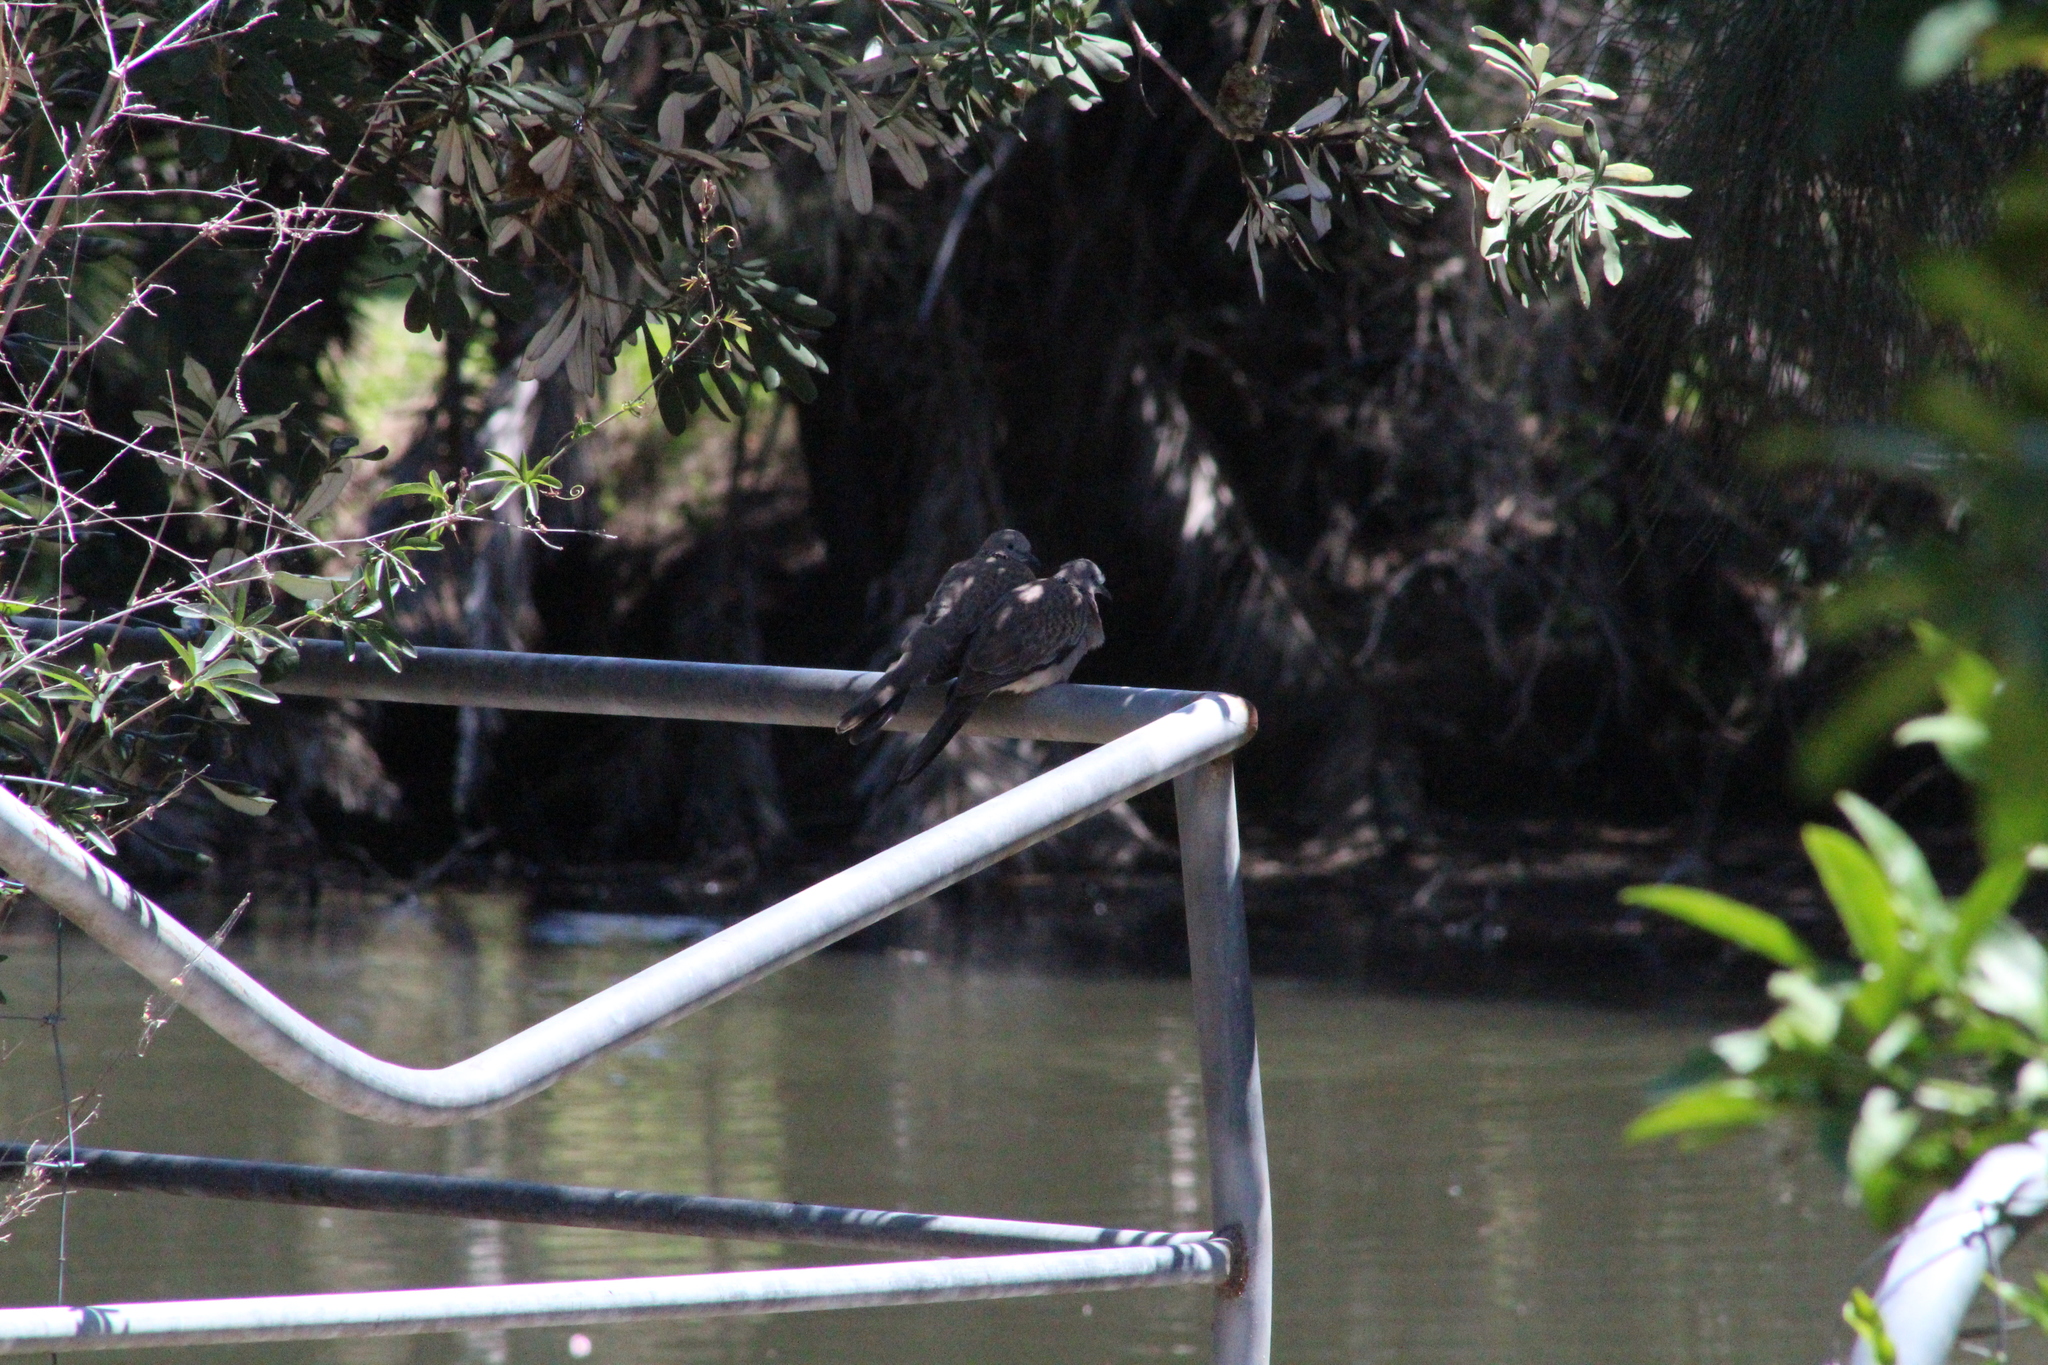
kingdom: Animalia
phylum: Chordata
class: Aves
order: Columbiformes
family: Columbidae
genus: Spilopelia
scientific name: Spilopelia chinensis
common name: Spotted dove
